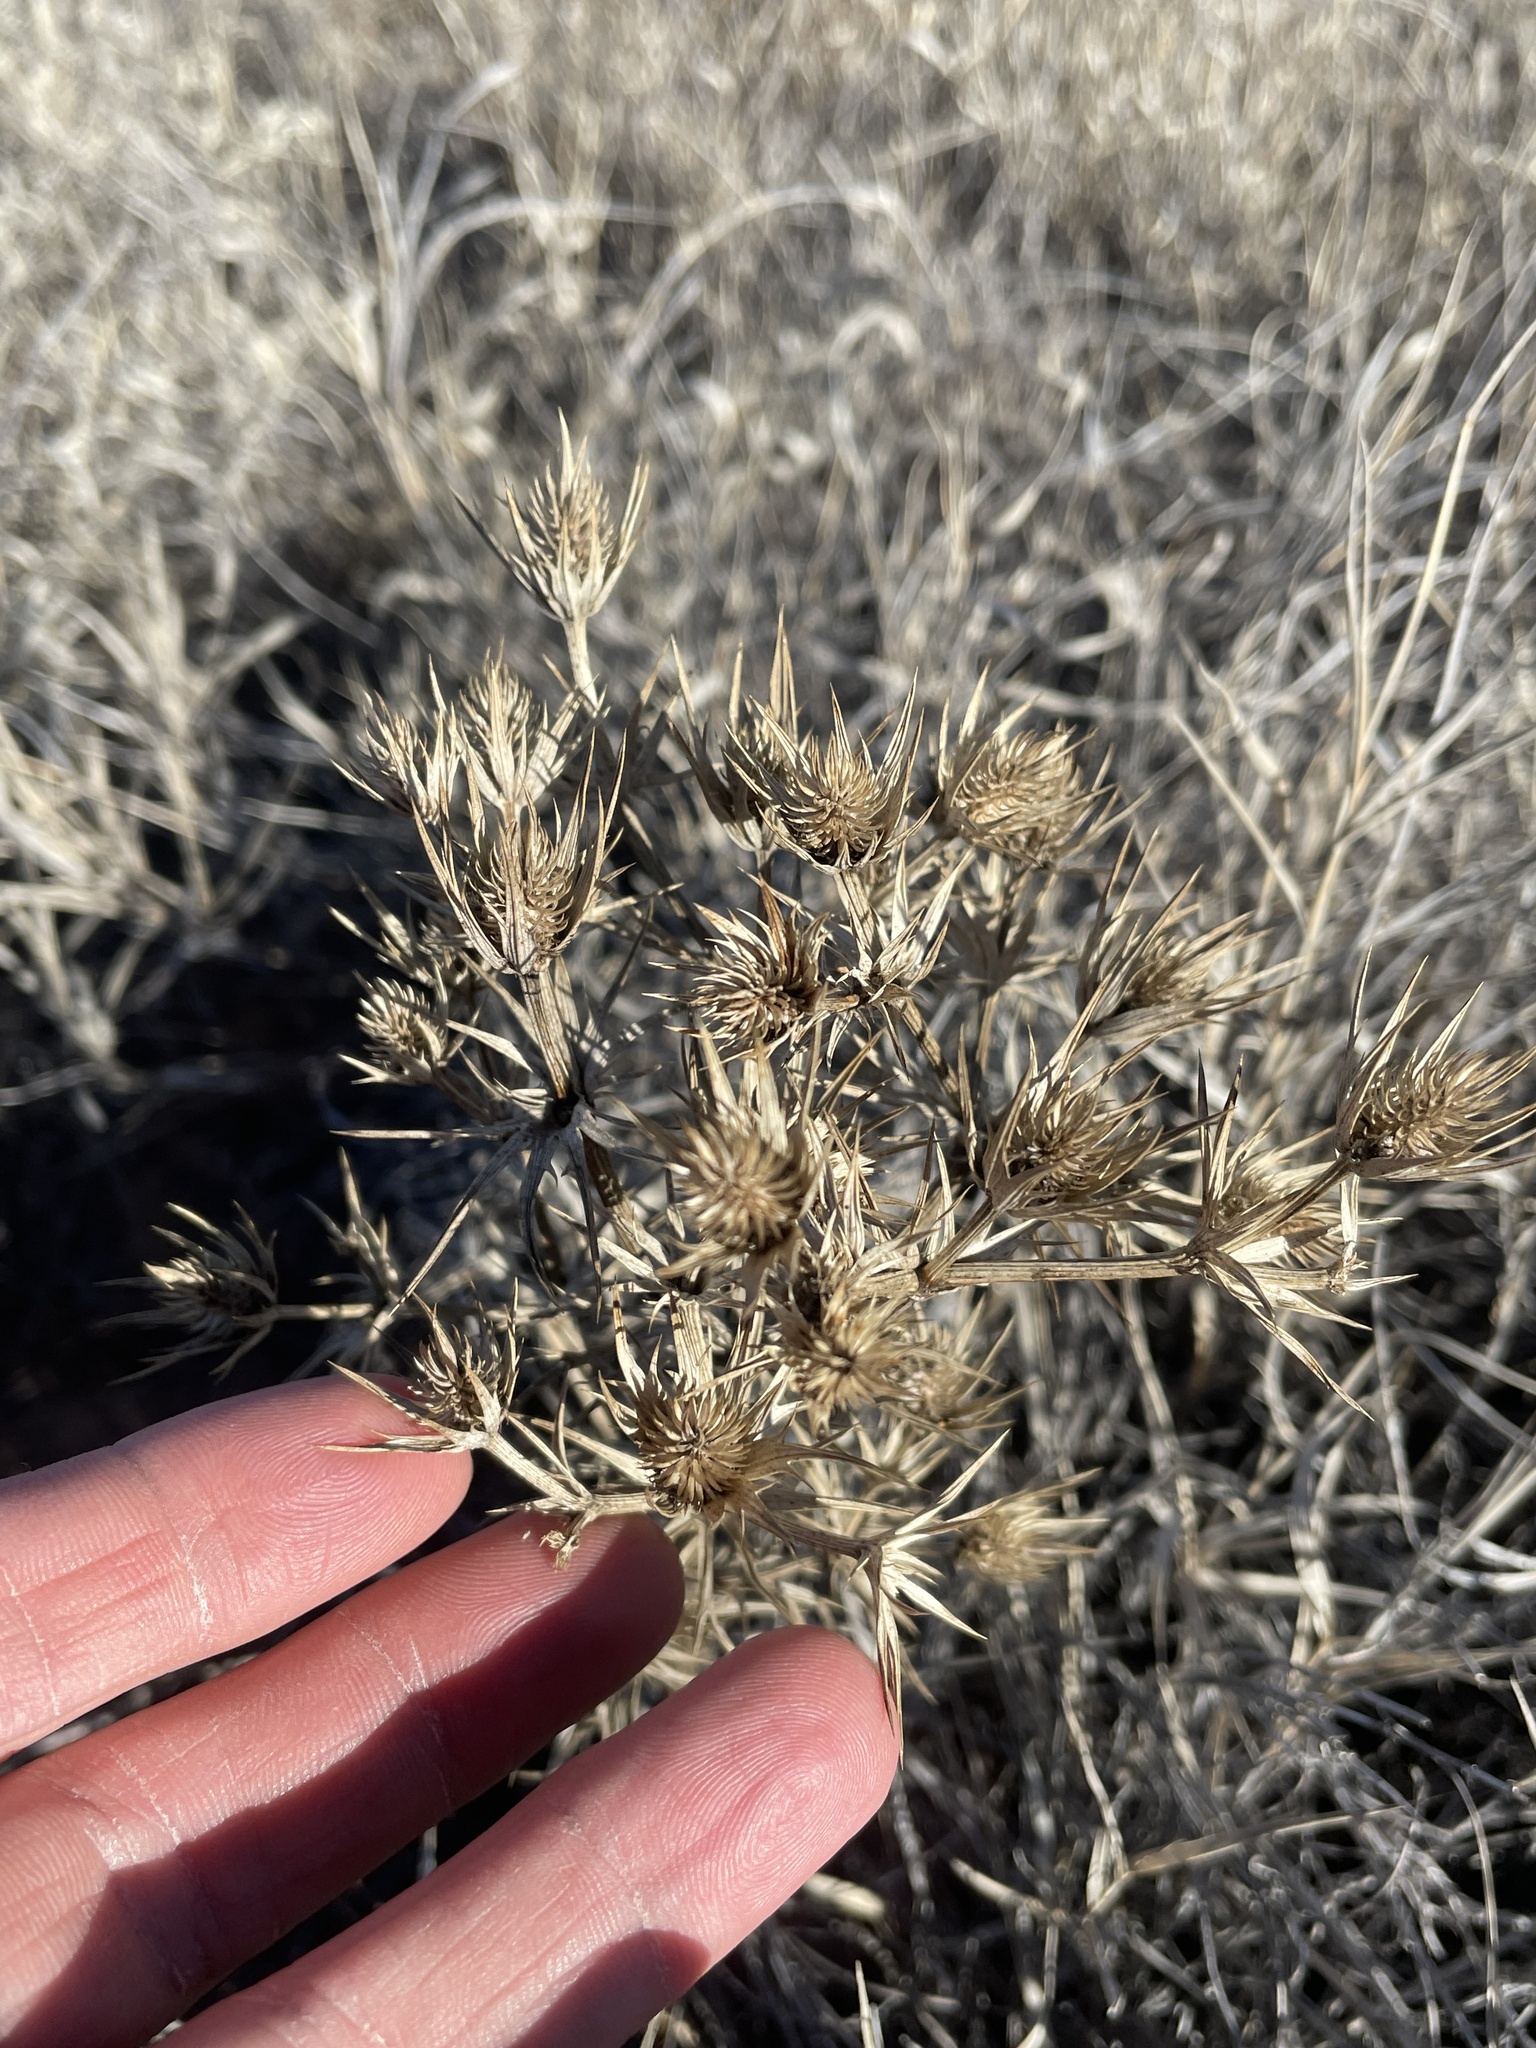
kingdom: Plantae
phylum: Tracheophyta
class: Magnoliopsida
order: Apiales
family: Apiaceae
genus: Eryngium
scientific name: Eryngium heterophyllum
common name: Mexican thistle
